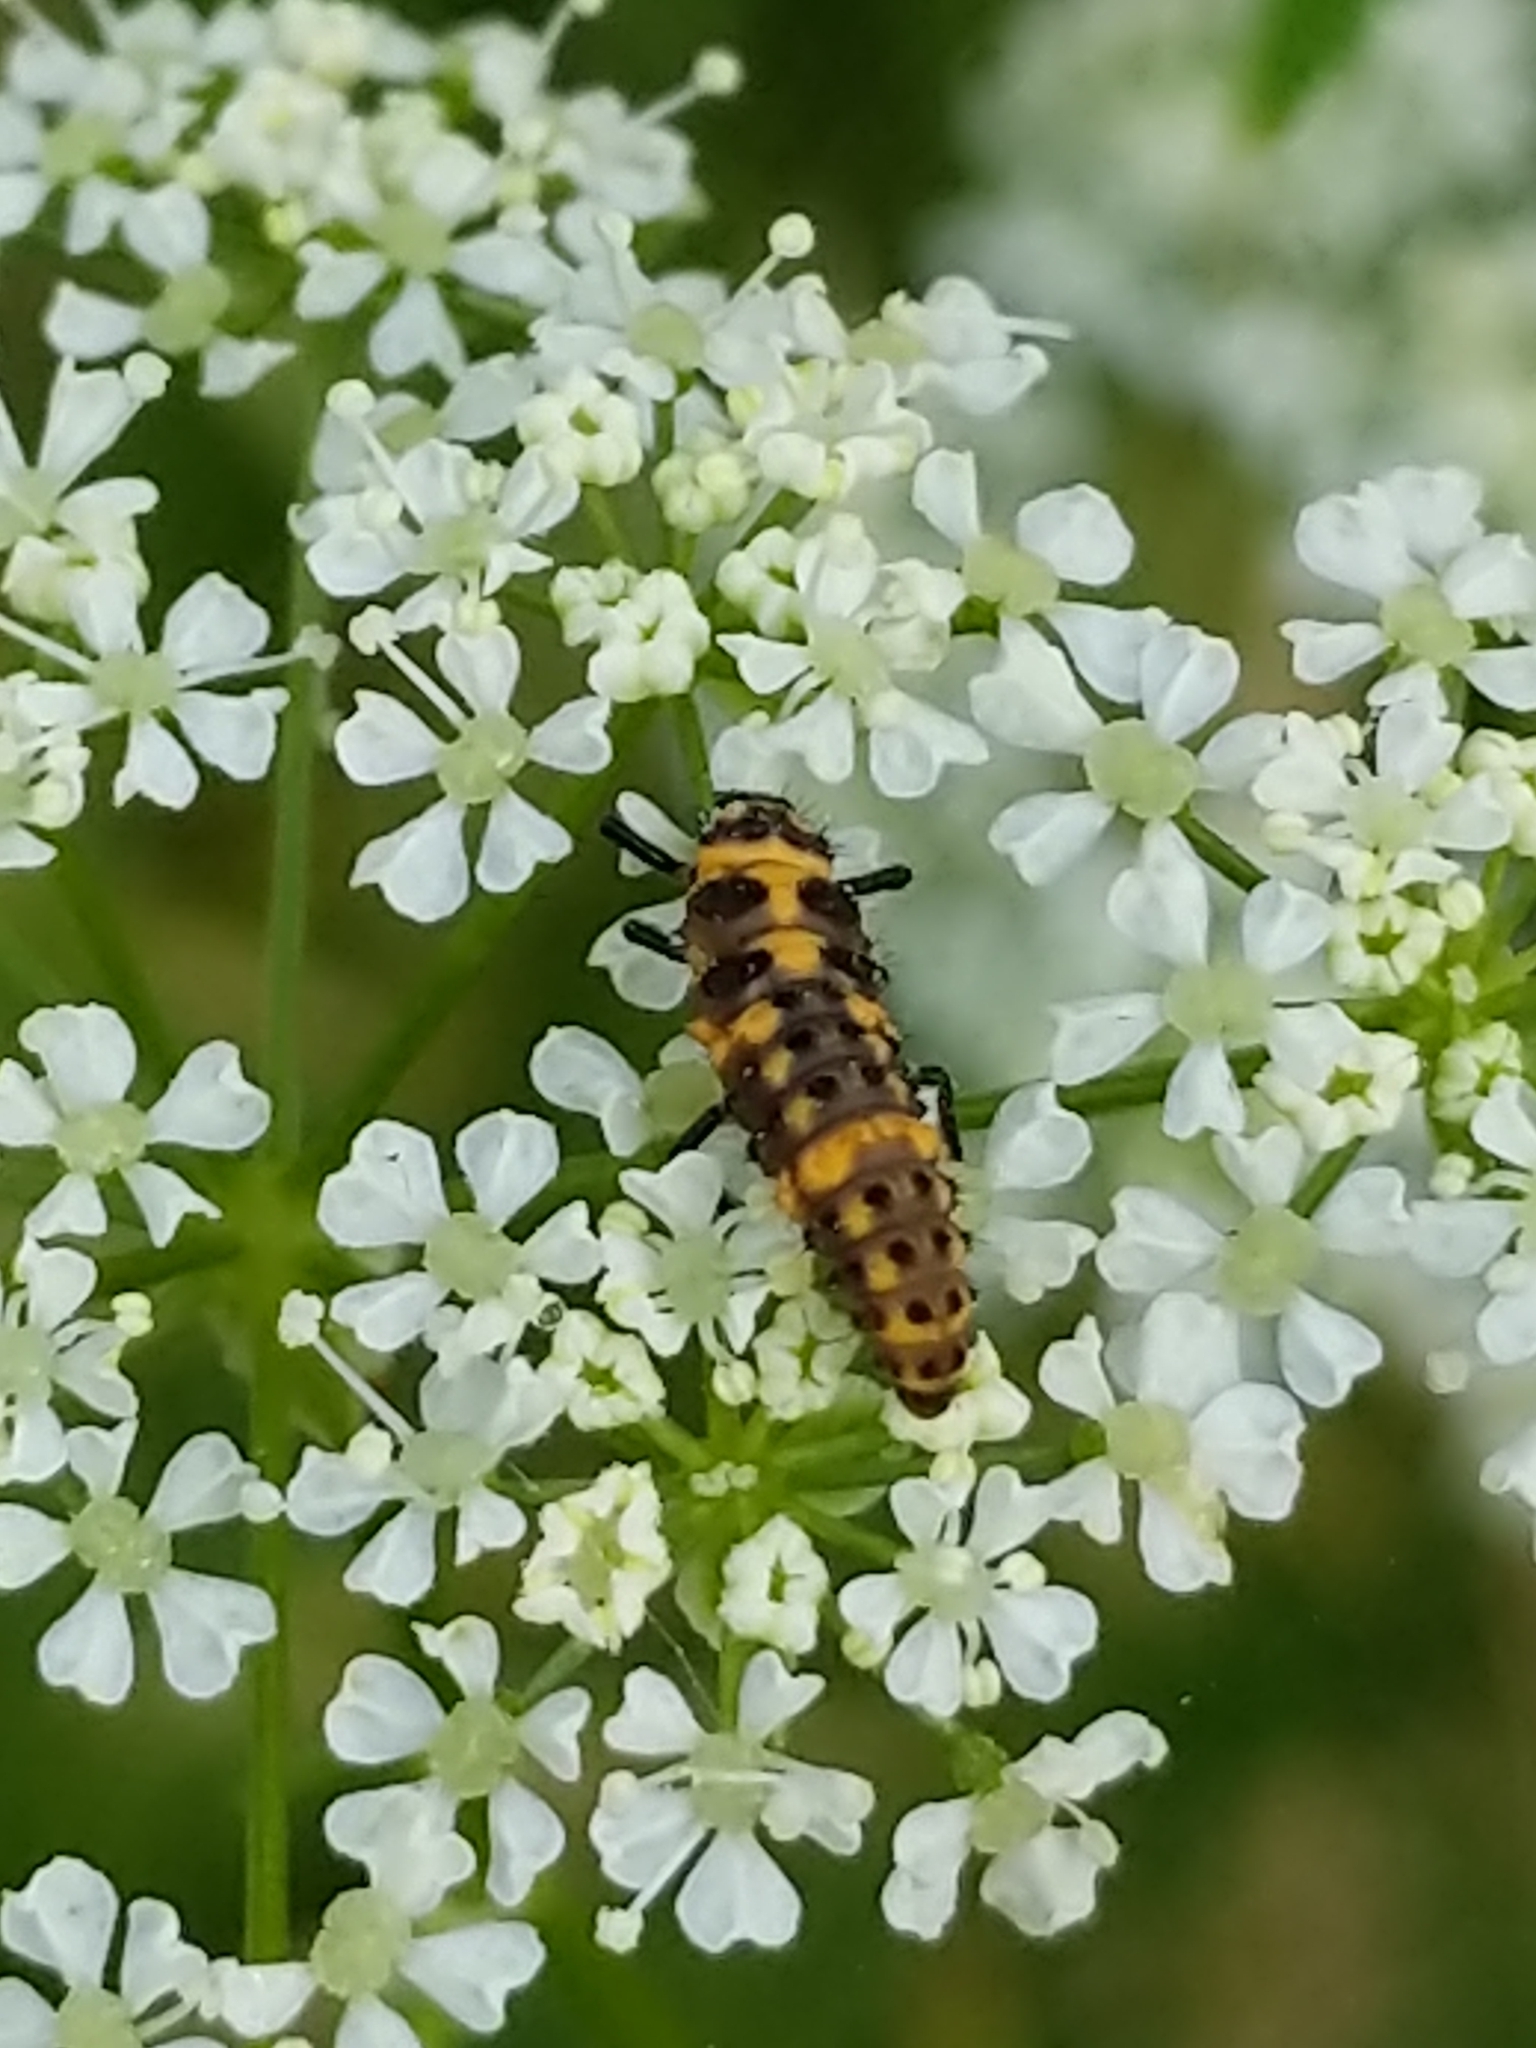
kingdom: Animalia
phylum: Arthropoda
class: Insecta
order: Coleoptera
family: Coccinellidae
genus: Coleomegilla
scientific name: Coleomegilla maculata
